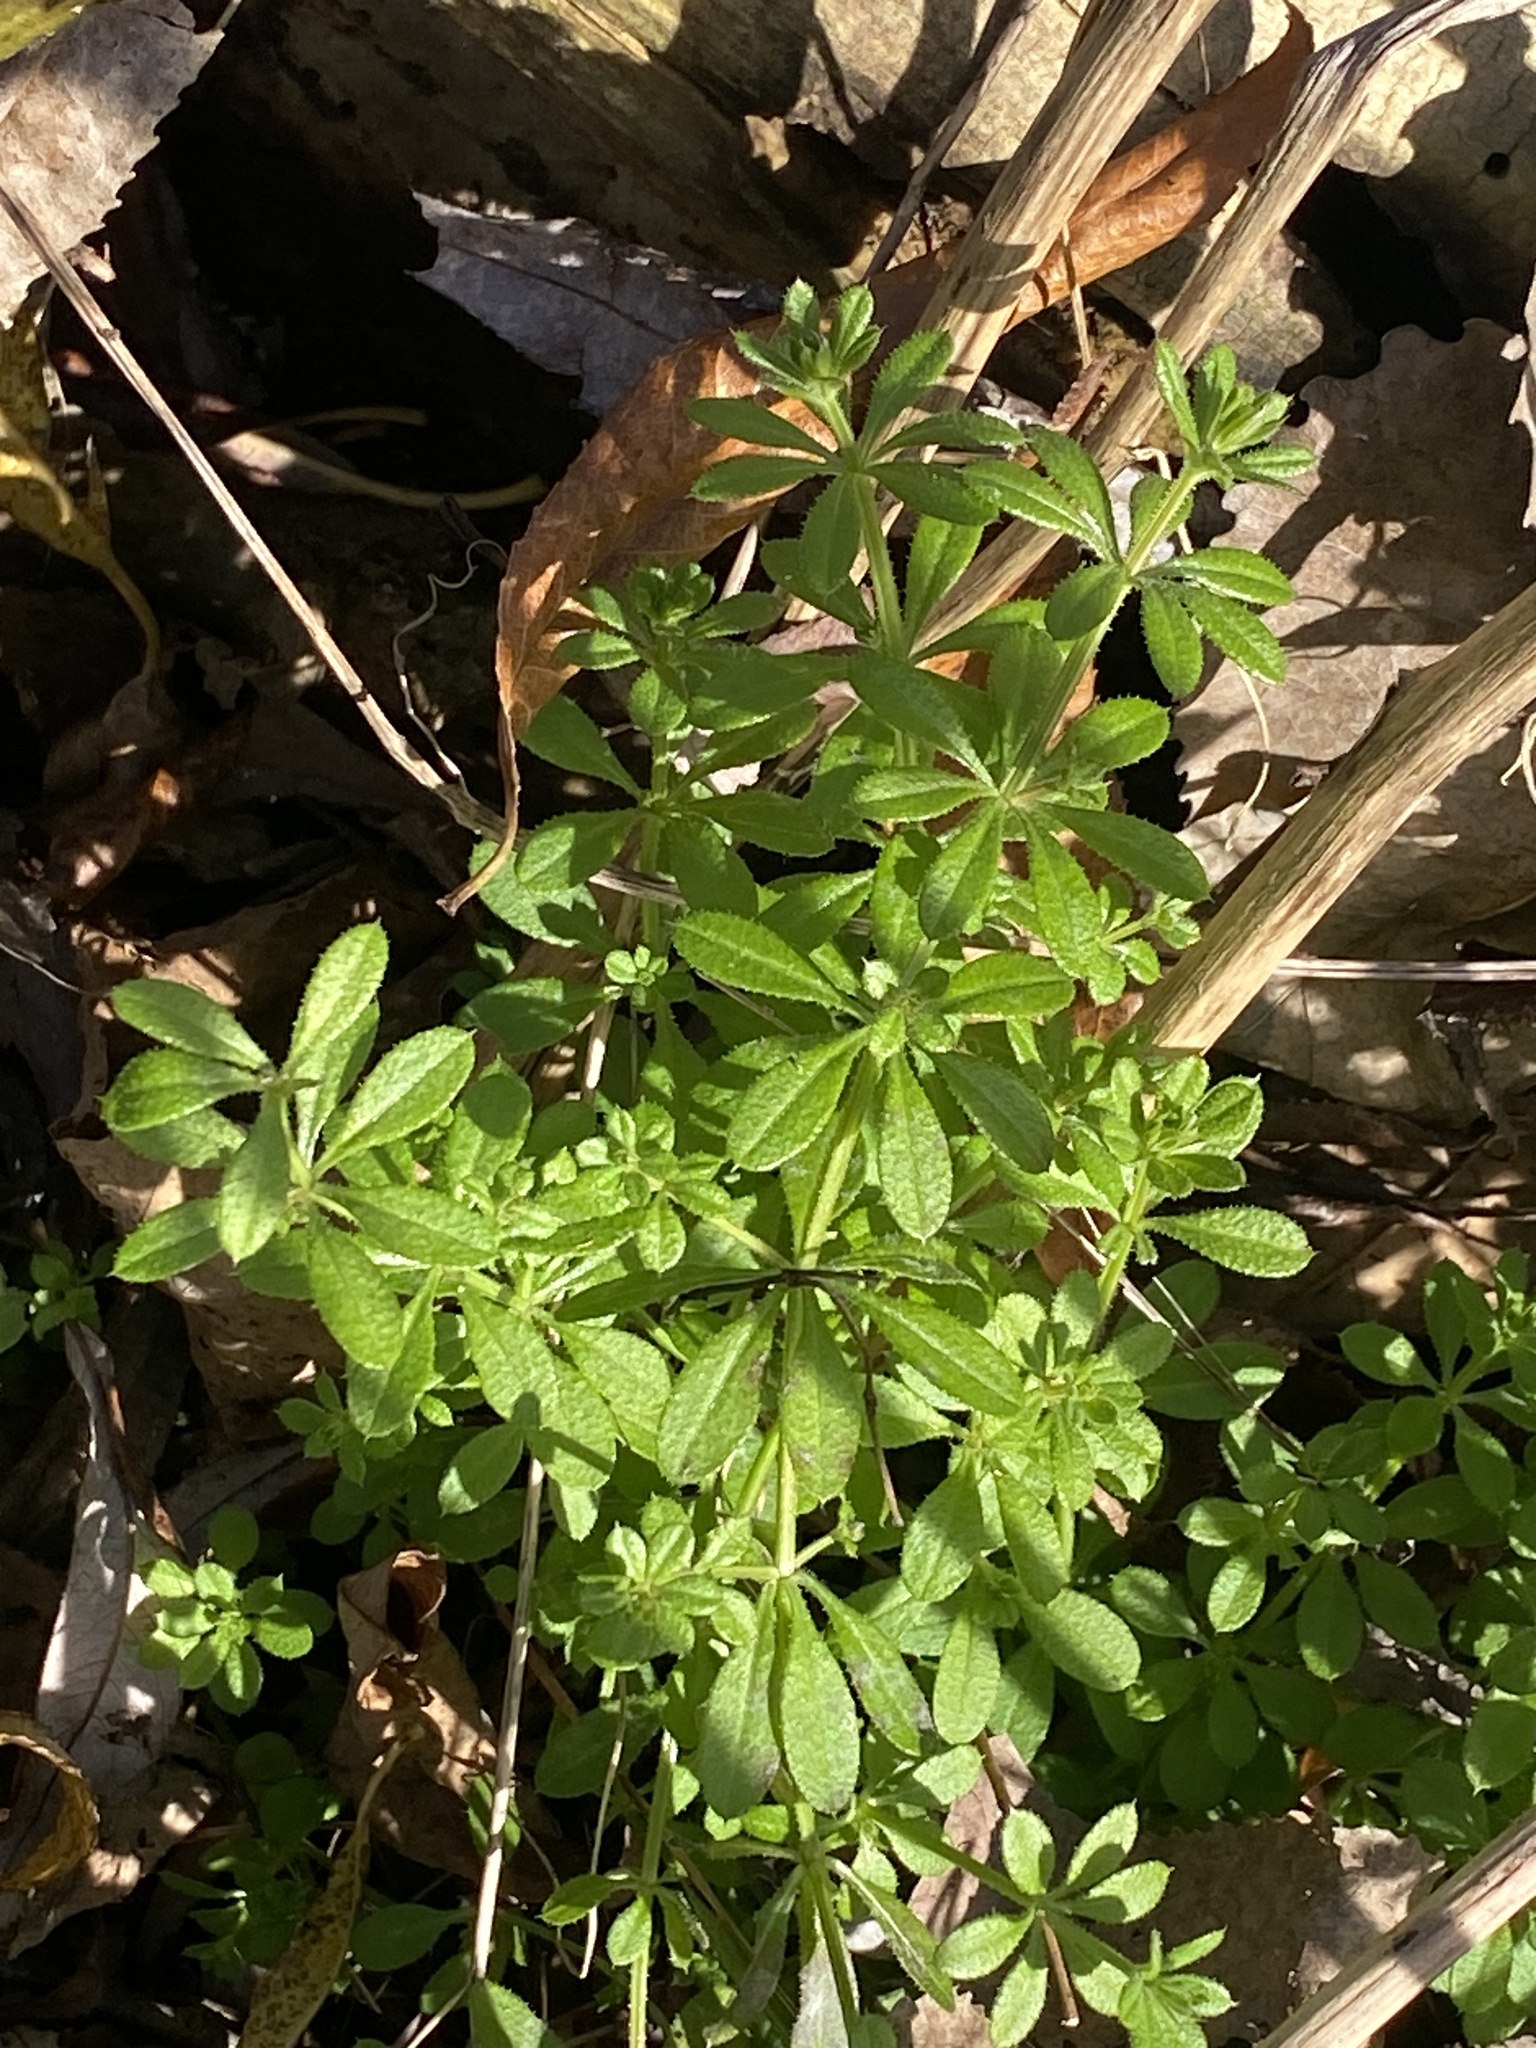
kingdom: Plantae
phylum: Tracheophyta
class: Magnoliopsida
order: Gentianales
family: Rubiaceae
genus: Galium
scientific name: Galium aparine
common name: Cleavers
